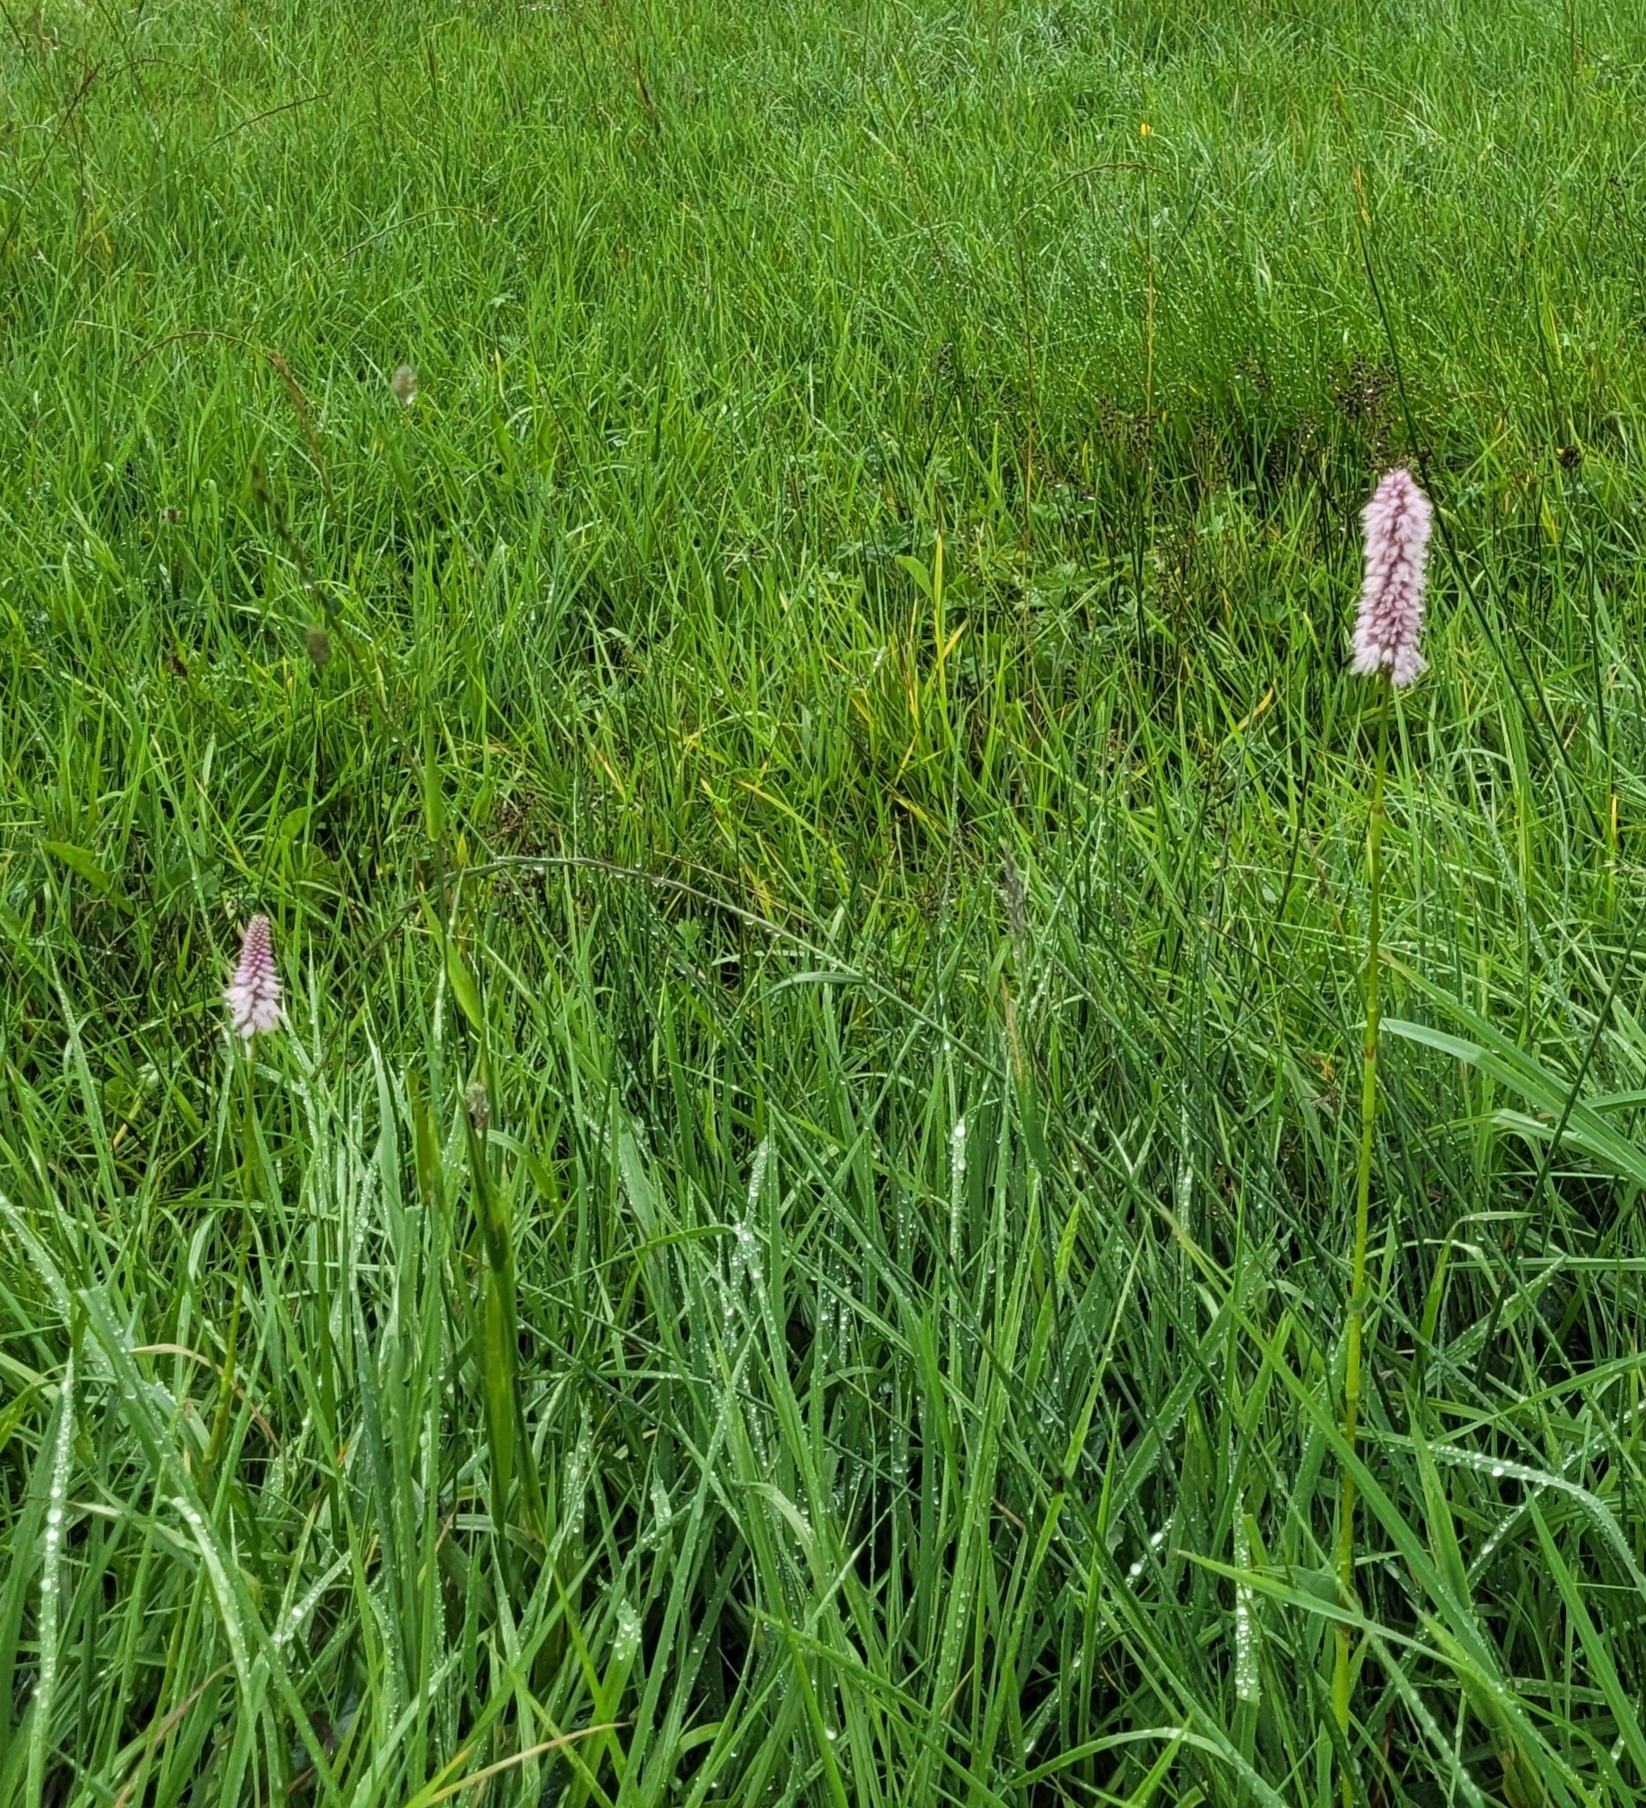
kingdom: Plantae
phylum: Tracheophyta
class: Magnoliopsida
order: Caryophyllales
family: Polygonaceae
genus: Bistorta
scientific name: Bistorta officinalis
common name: Common bistort
